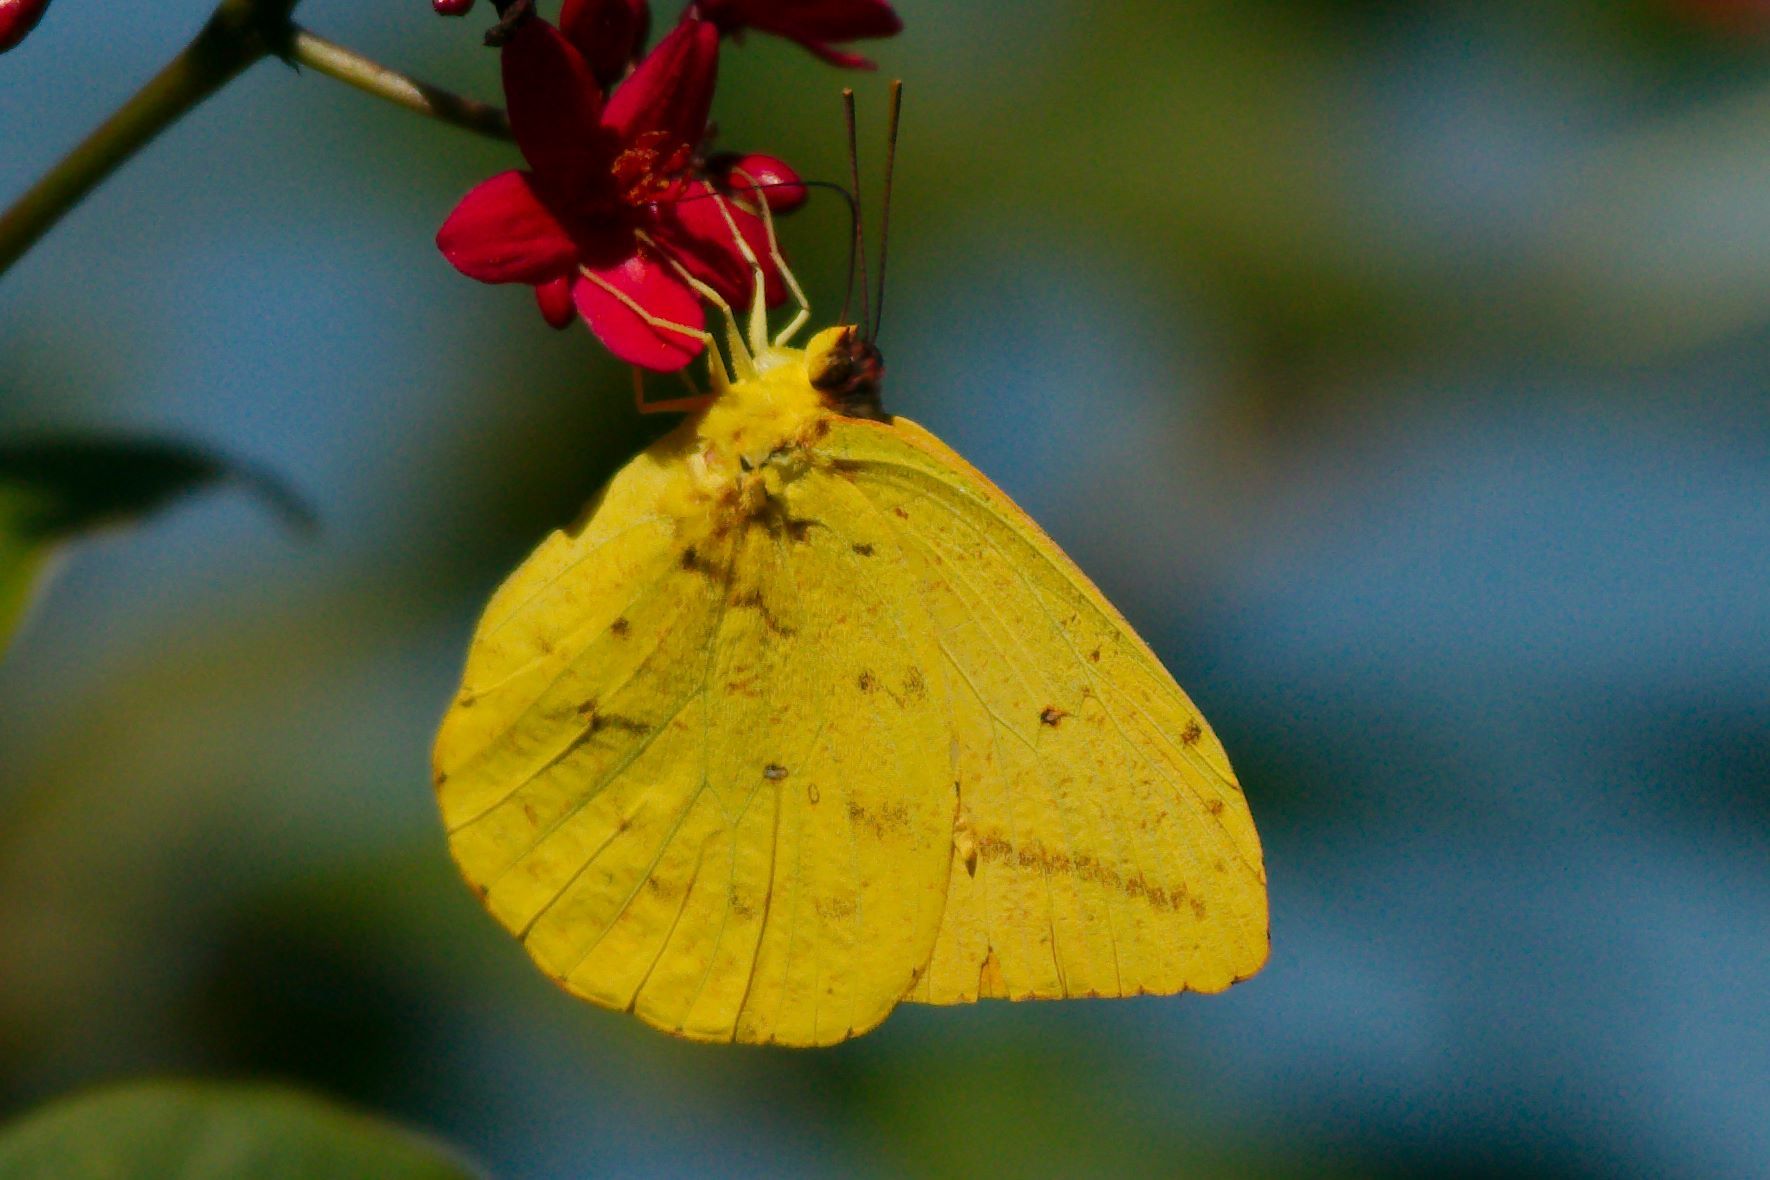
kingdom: Animalia
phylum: Arthropoda
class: Insecta
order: Lepidoptera
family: Pieridae
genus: Phoebis
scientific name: Phoebis agarithe
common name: Large orange sulphur
